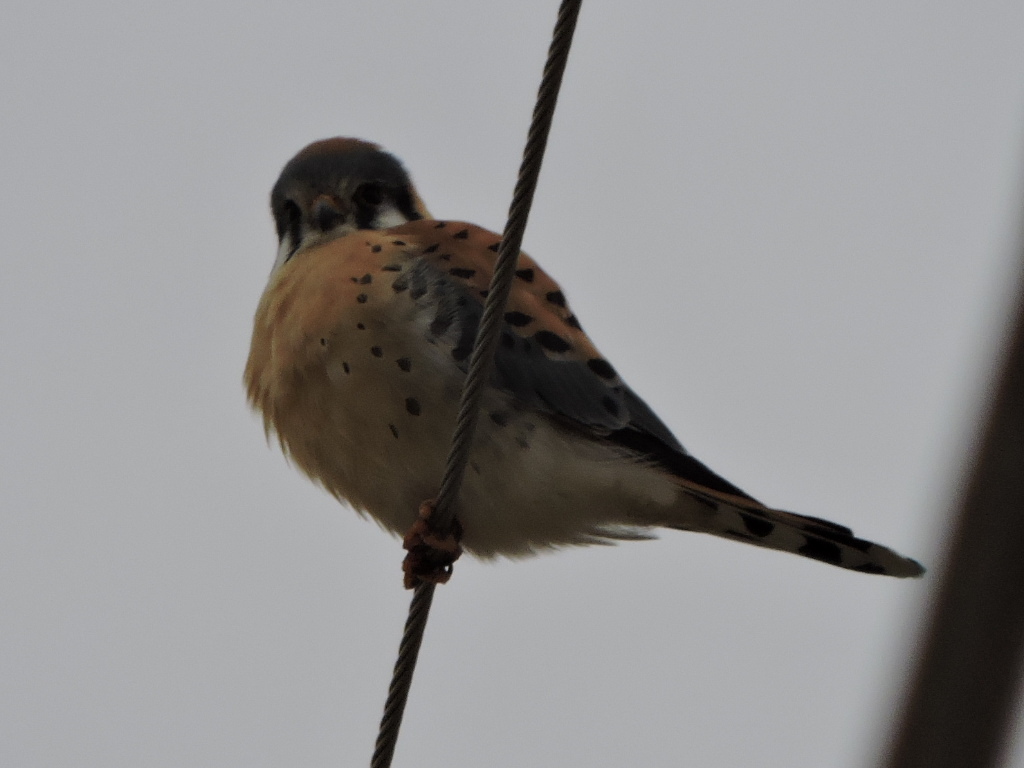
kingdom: Animalia
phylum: Chordata
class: Aves
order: Falconiformes
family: Falconidae
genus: Falco
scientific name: Falco sparverius
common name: American kestrel
